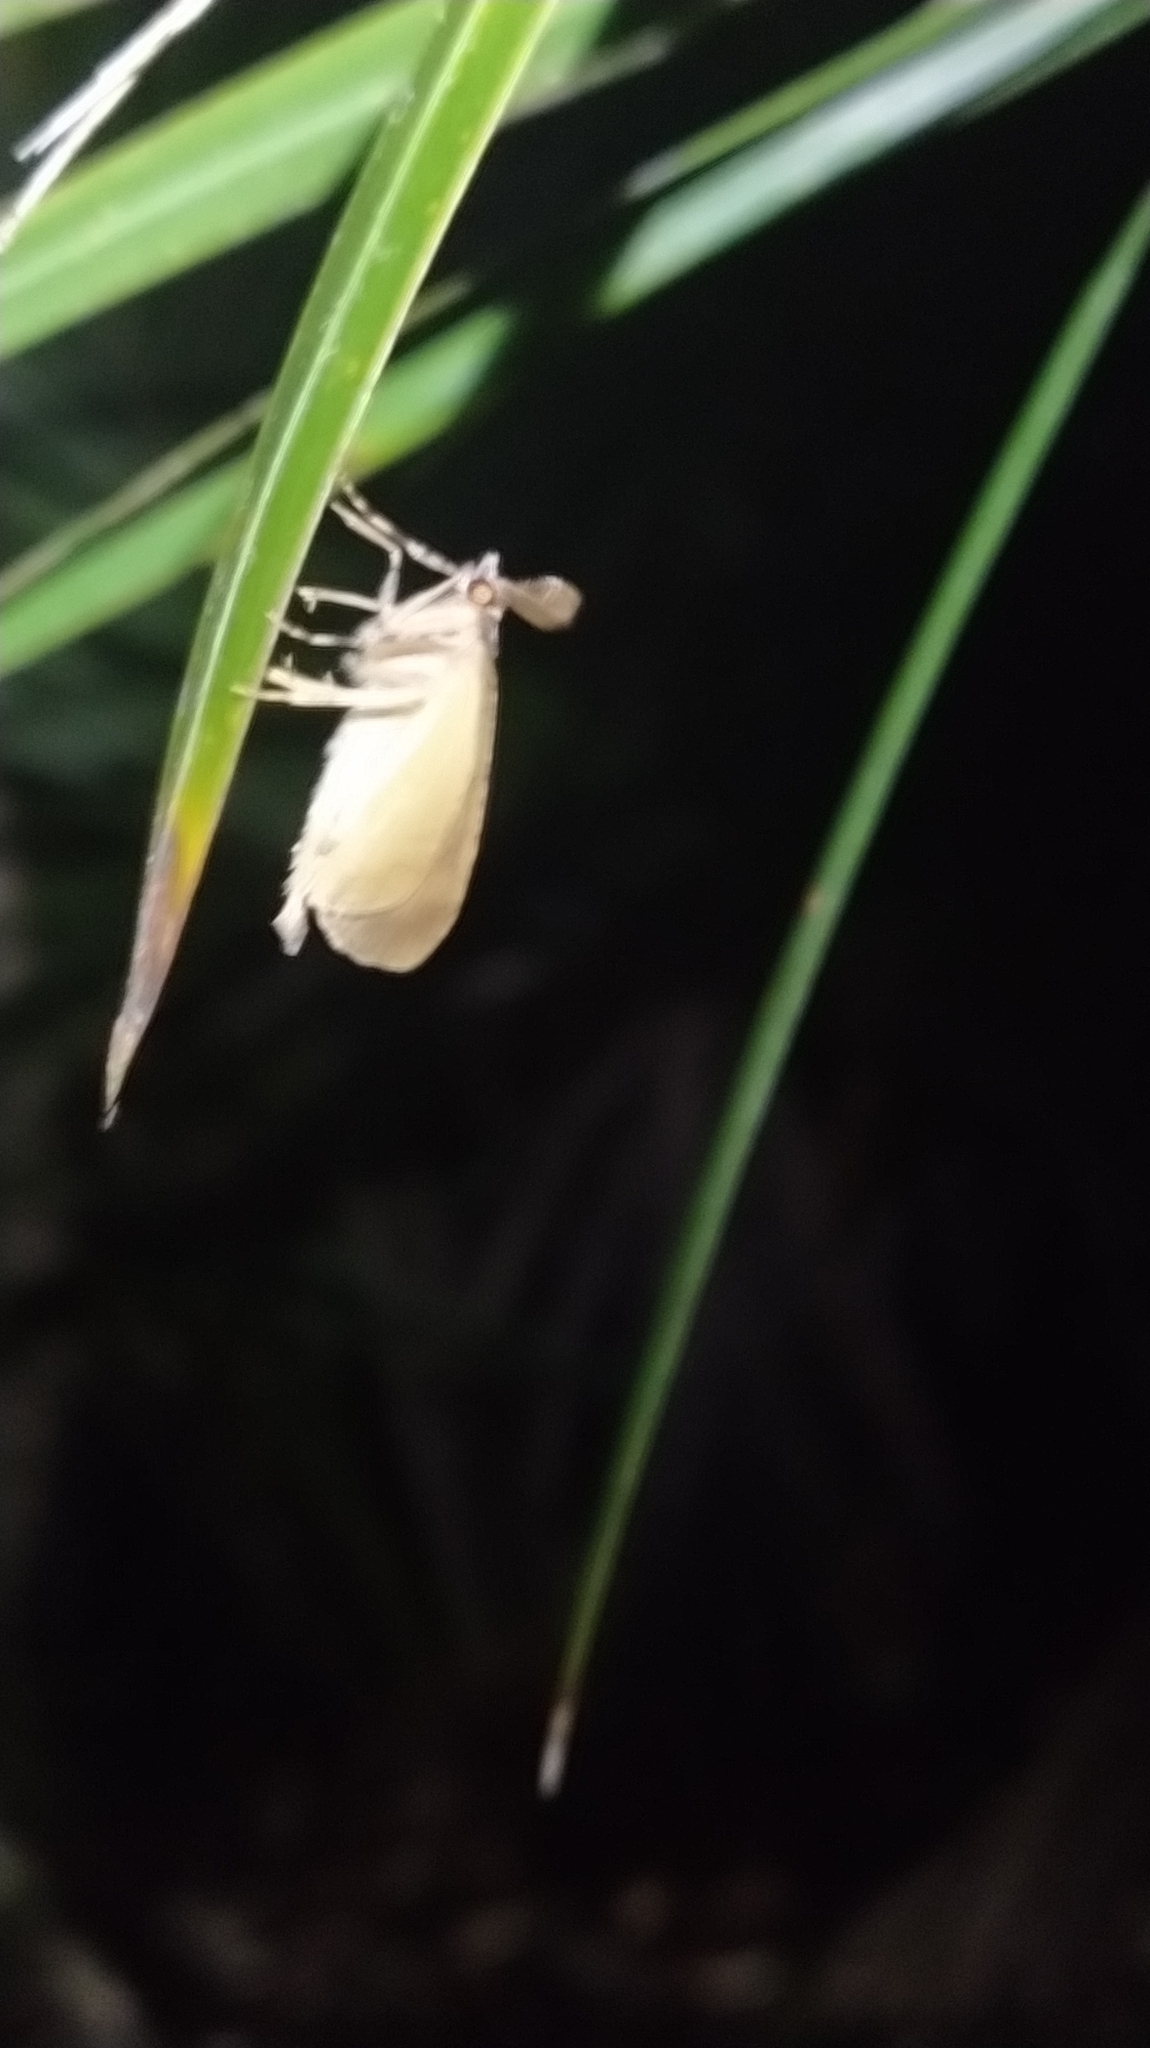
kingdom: Animalia
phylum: Arthropoda
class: Insecta
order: Lepidoptera
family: Geometridae
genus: Pseudocoremia
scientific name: Pseudocoremia suavis
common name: Common forest looper
